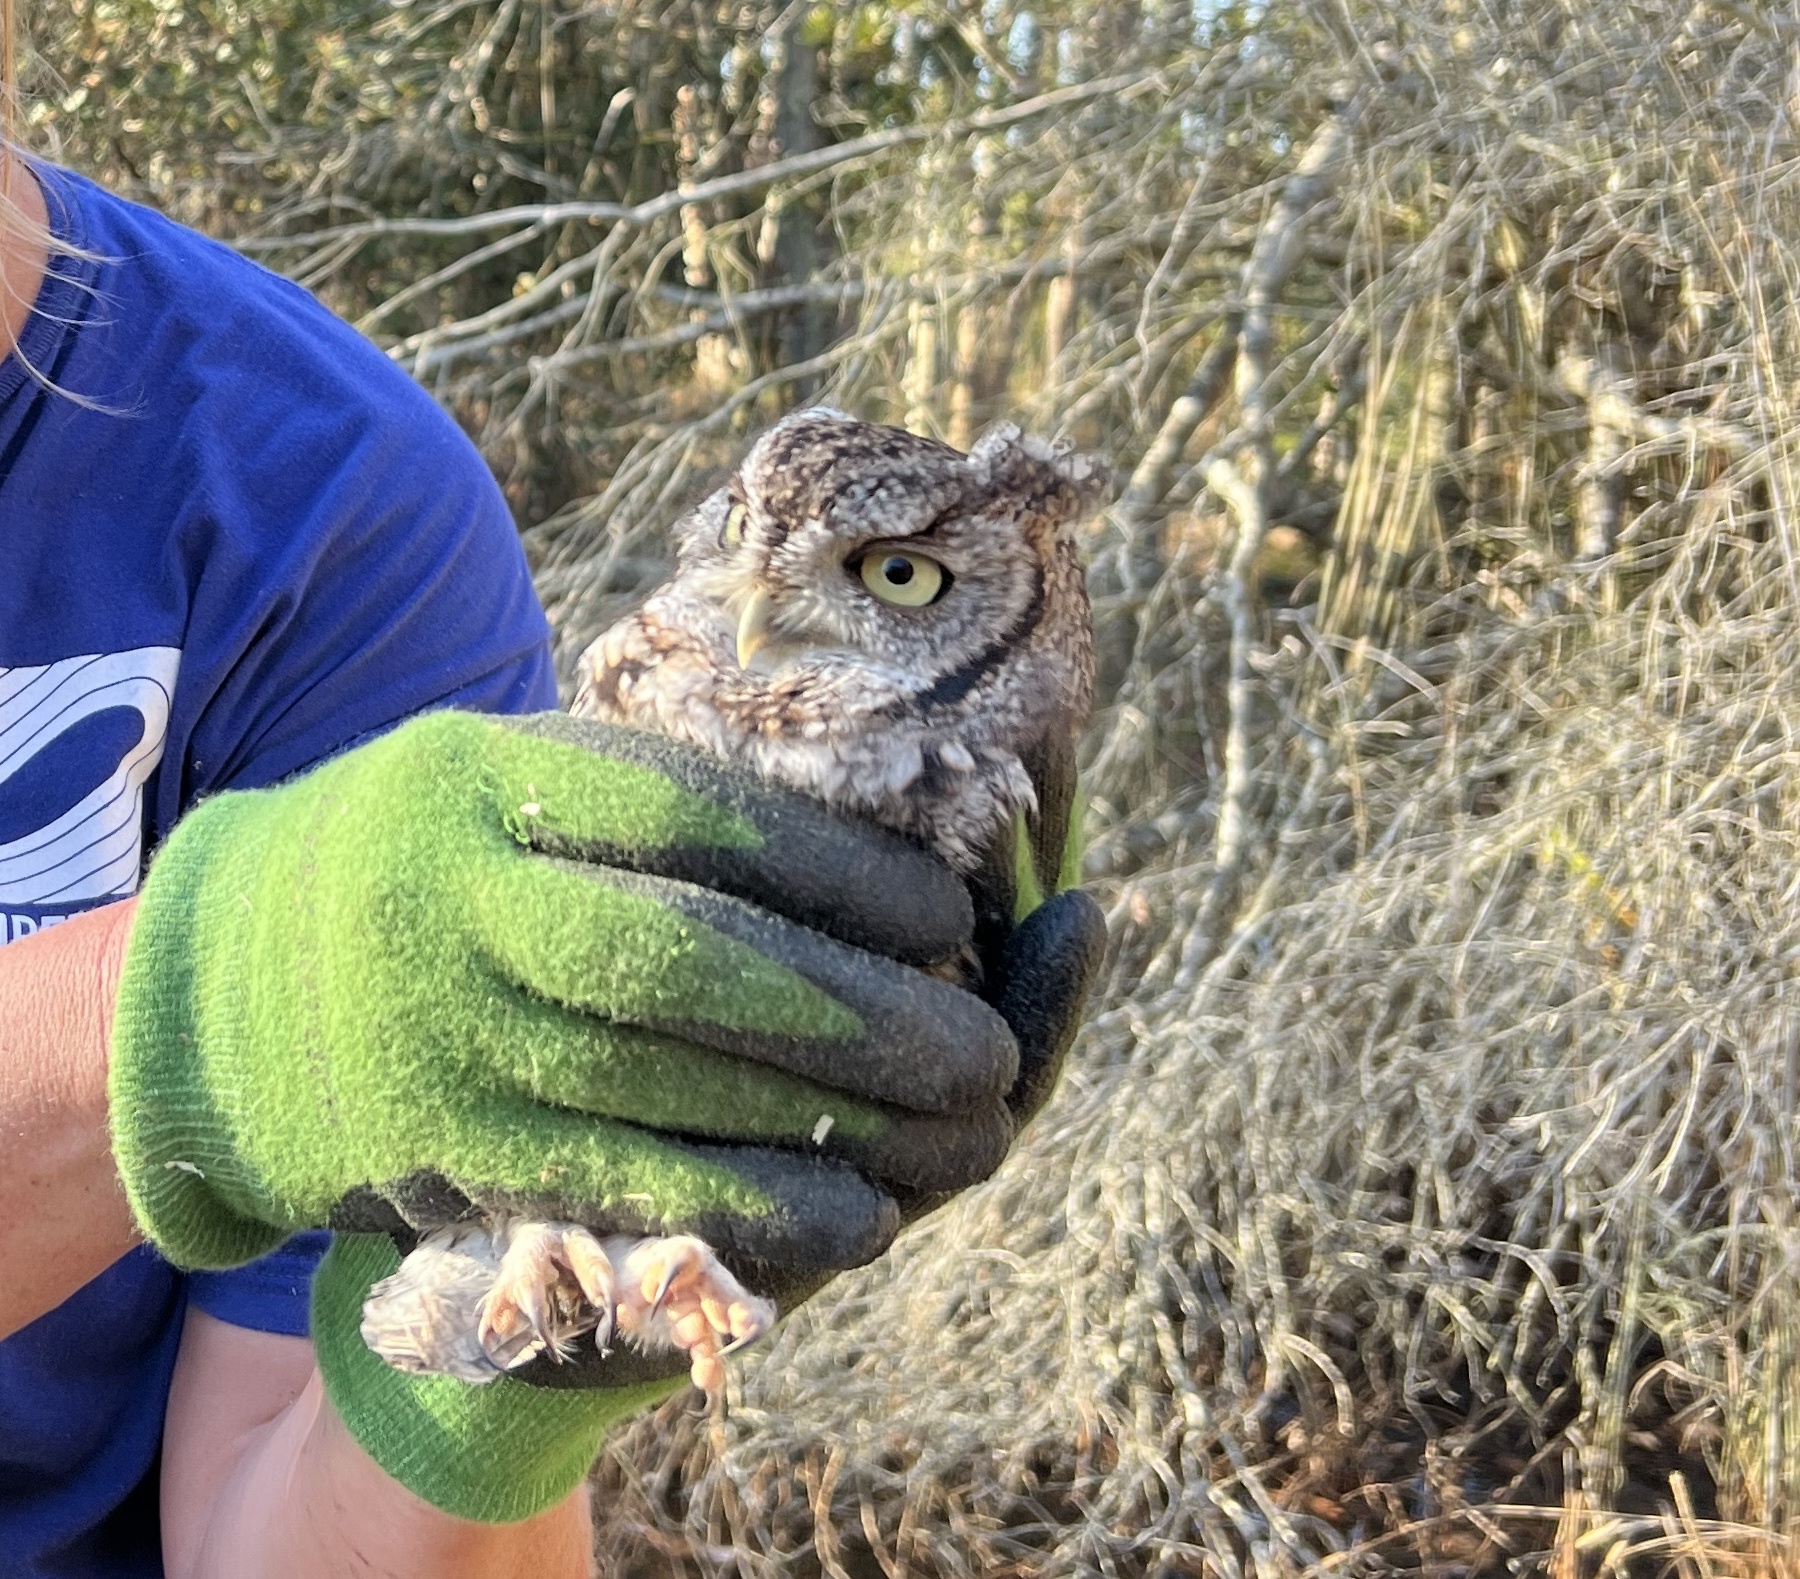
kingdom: Animalia
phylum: Chordata
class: Aves
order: Strigiformes
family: Strigidae
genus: Megascops
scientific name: Megascops asio
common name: Eastern screech-owl
